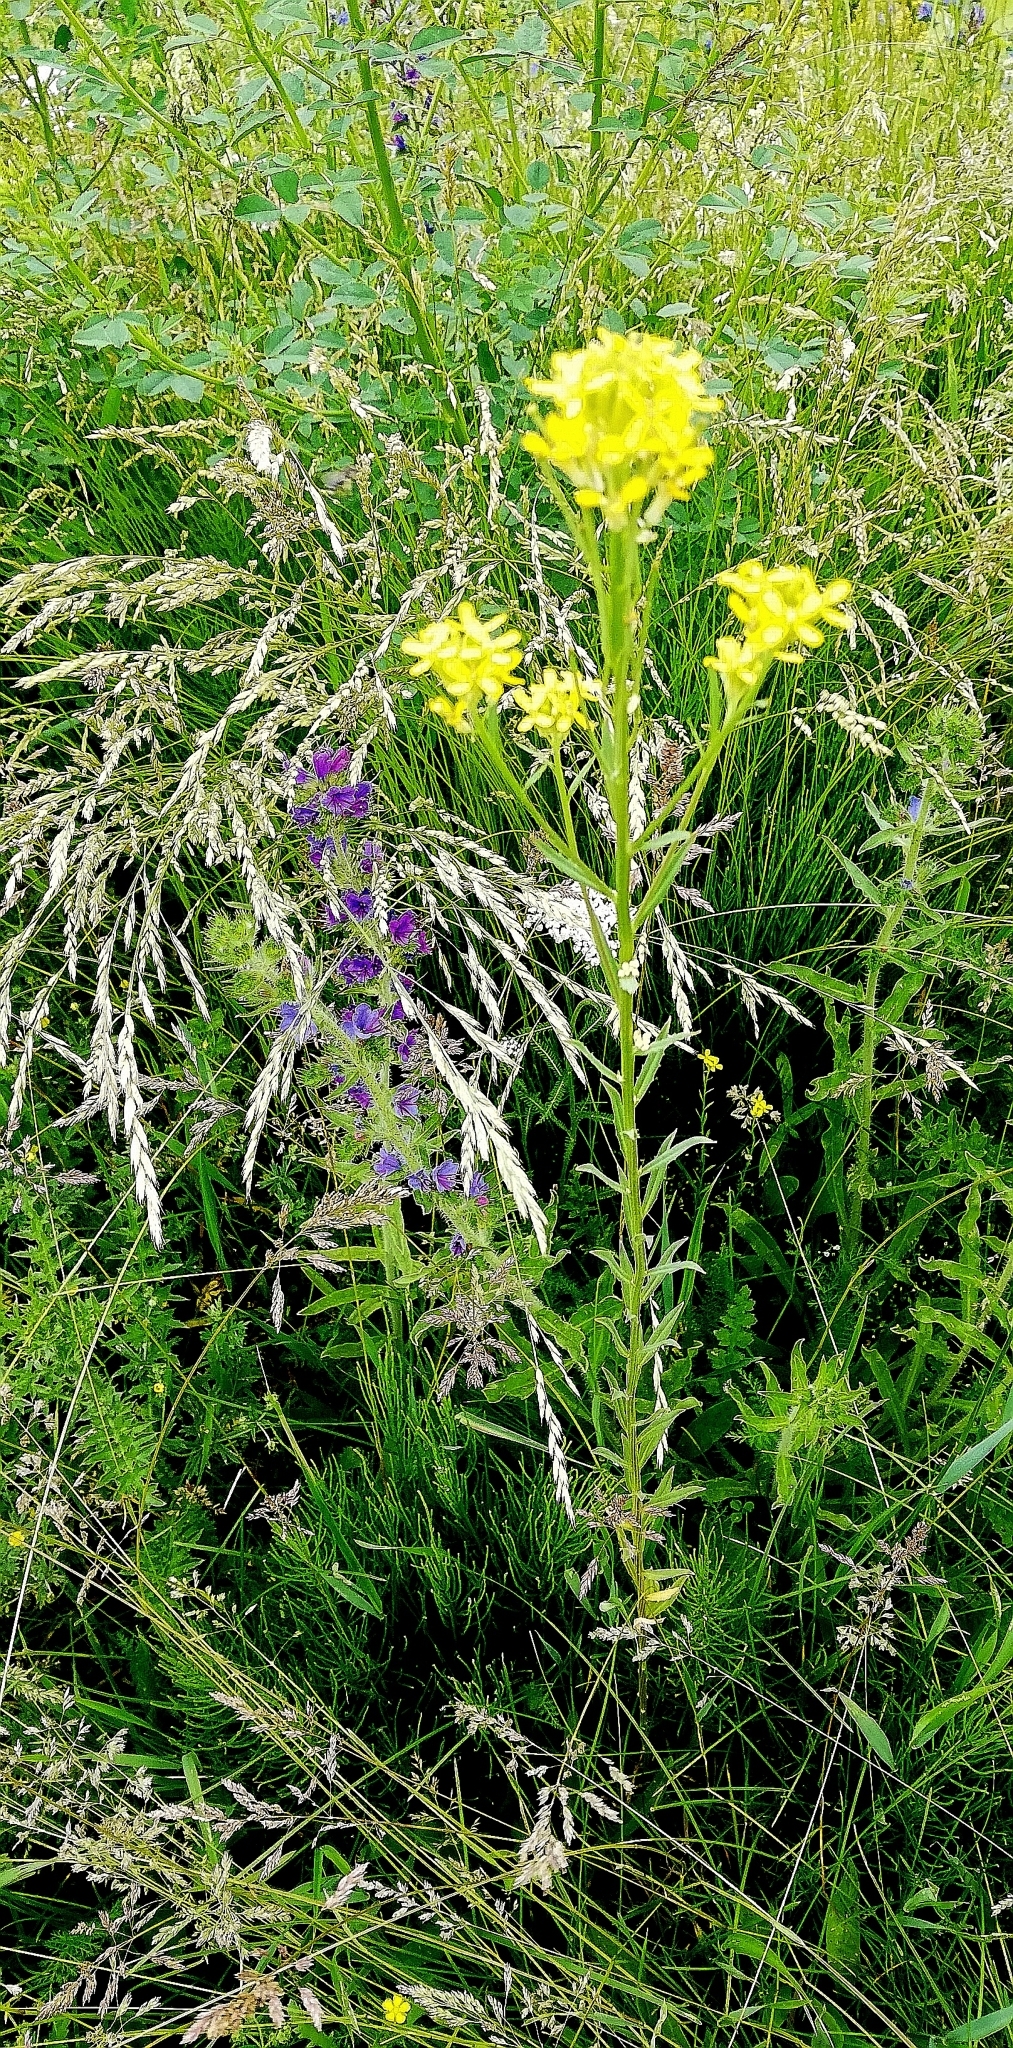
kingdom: Plantae
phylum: Tracheophyta
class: Magnoliopsida
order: Brassicales
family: Brassicaceae
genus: Erysimum
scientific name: Erysimum hieraciifolium
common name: European wallflower
